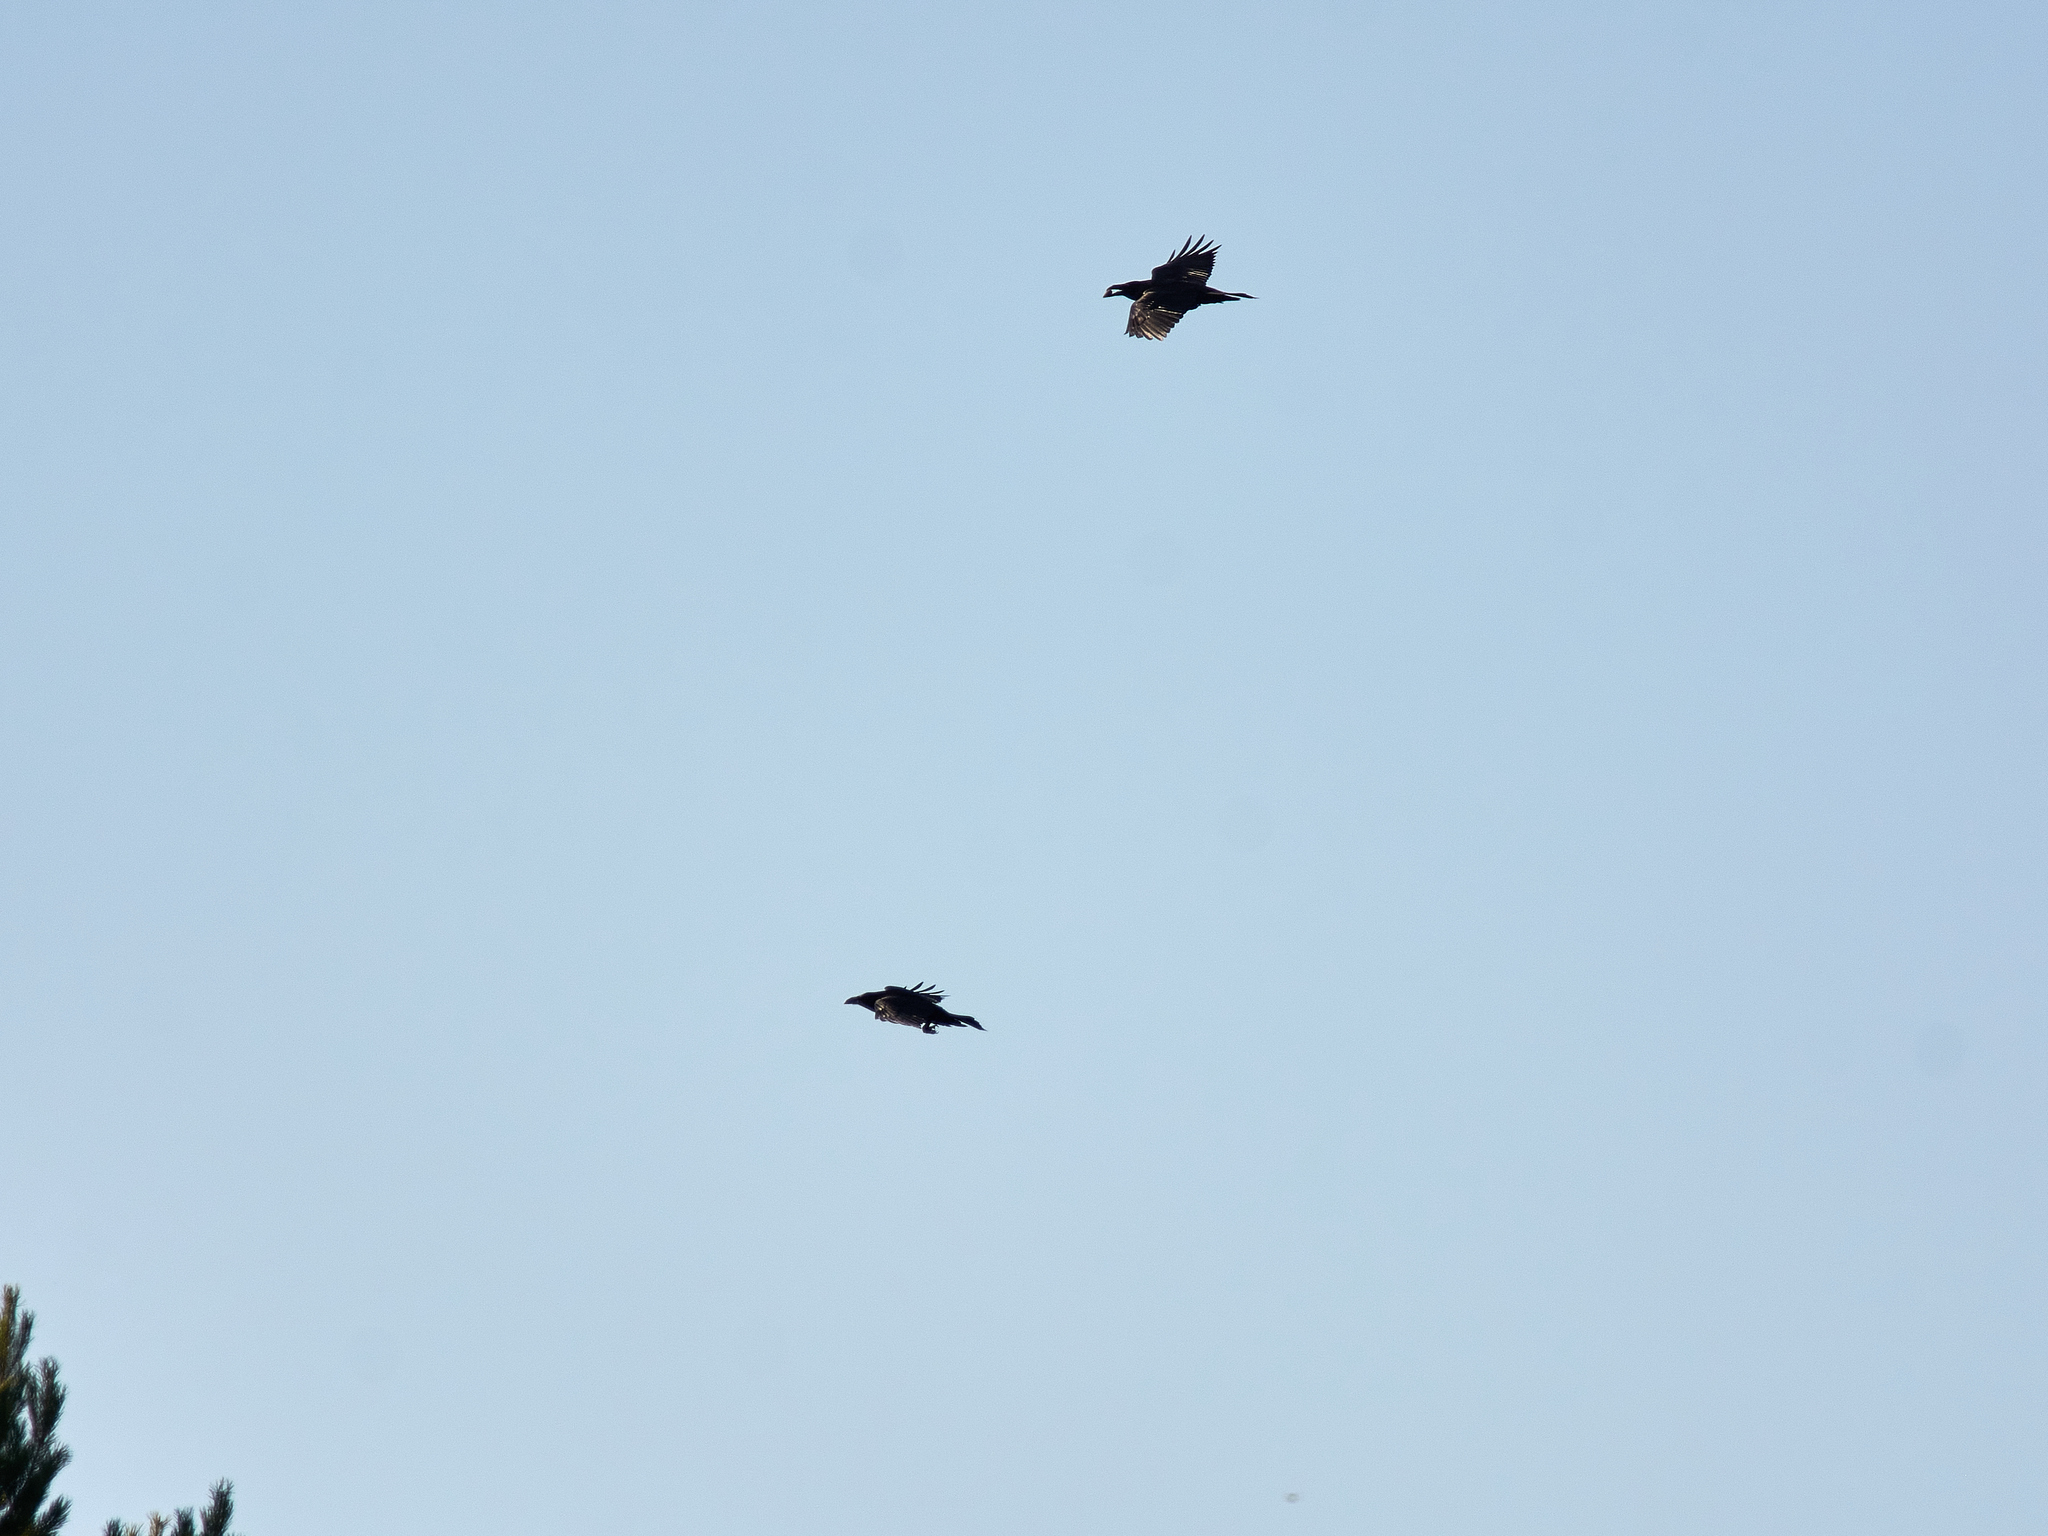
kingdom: Animalia
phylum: Chordata
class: Aves
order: Passeriformes
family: Corvidae
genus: Corvus
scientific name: Corvus corax
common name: Common raven
